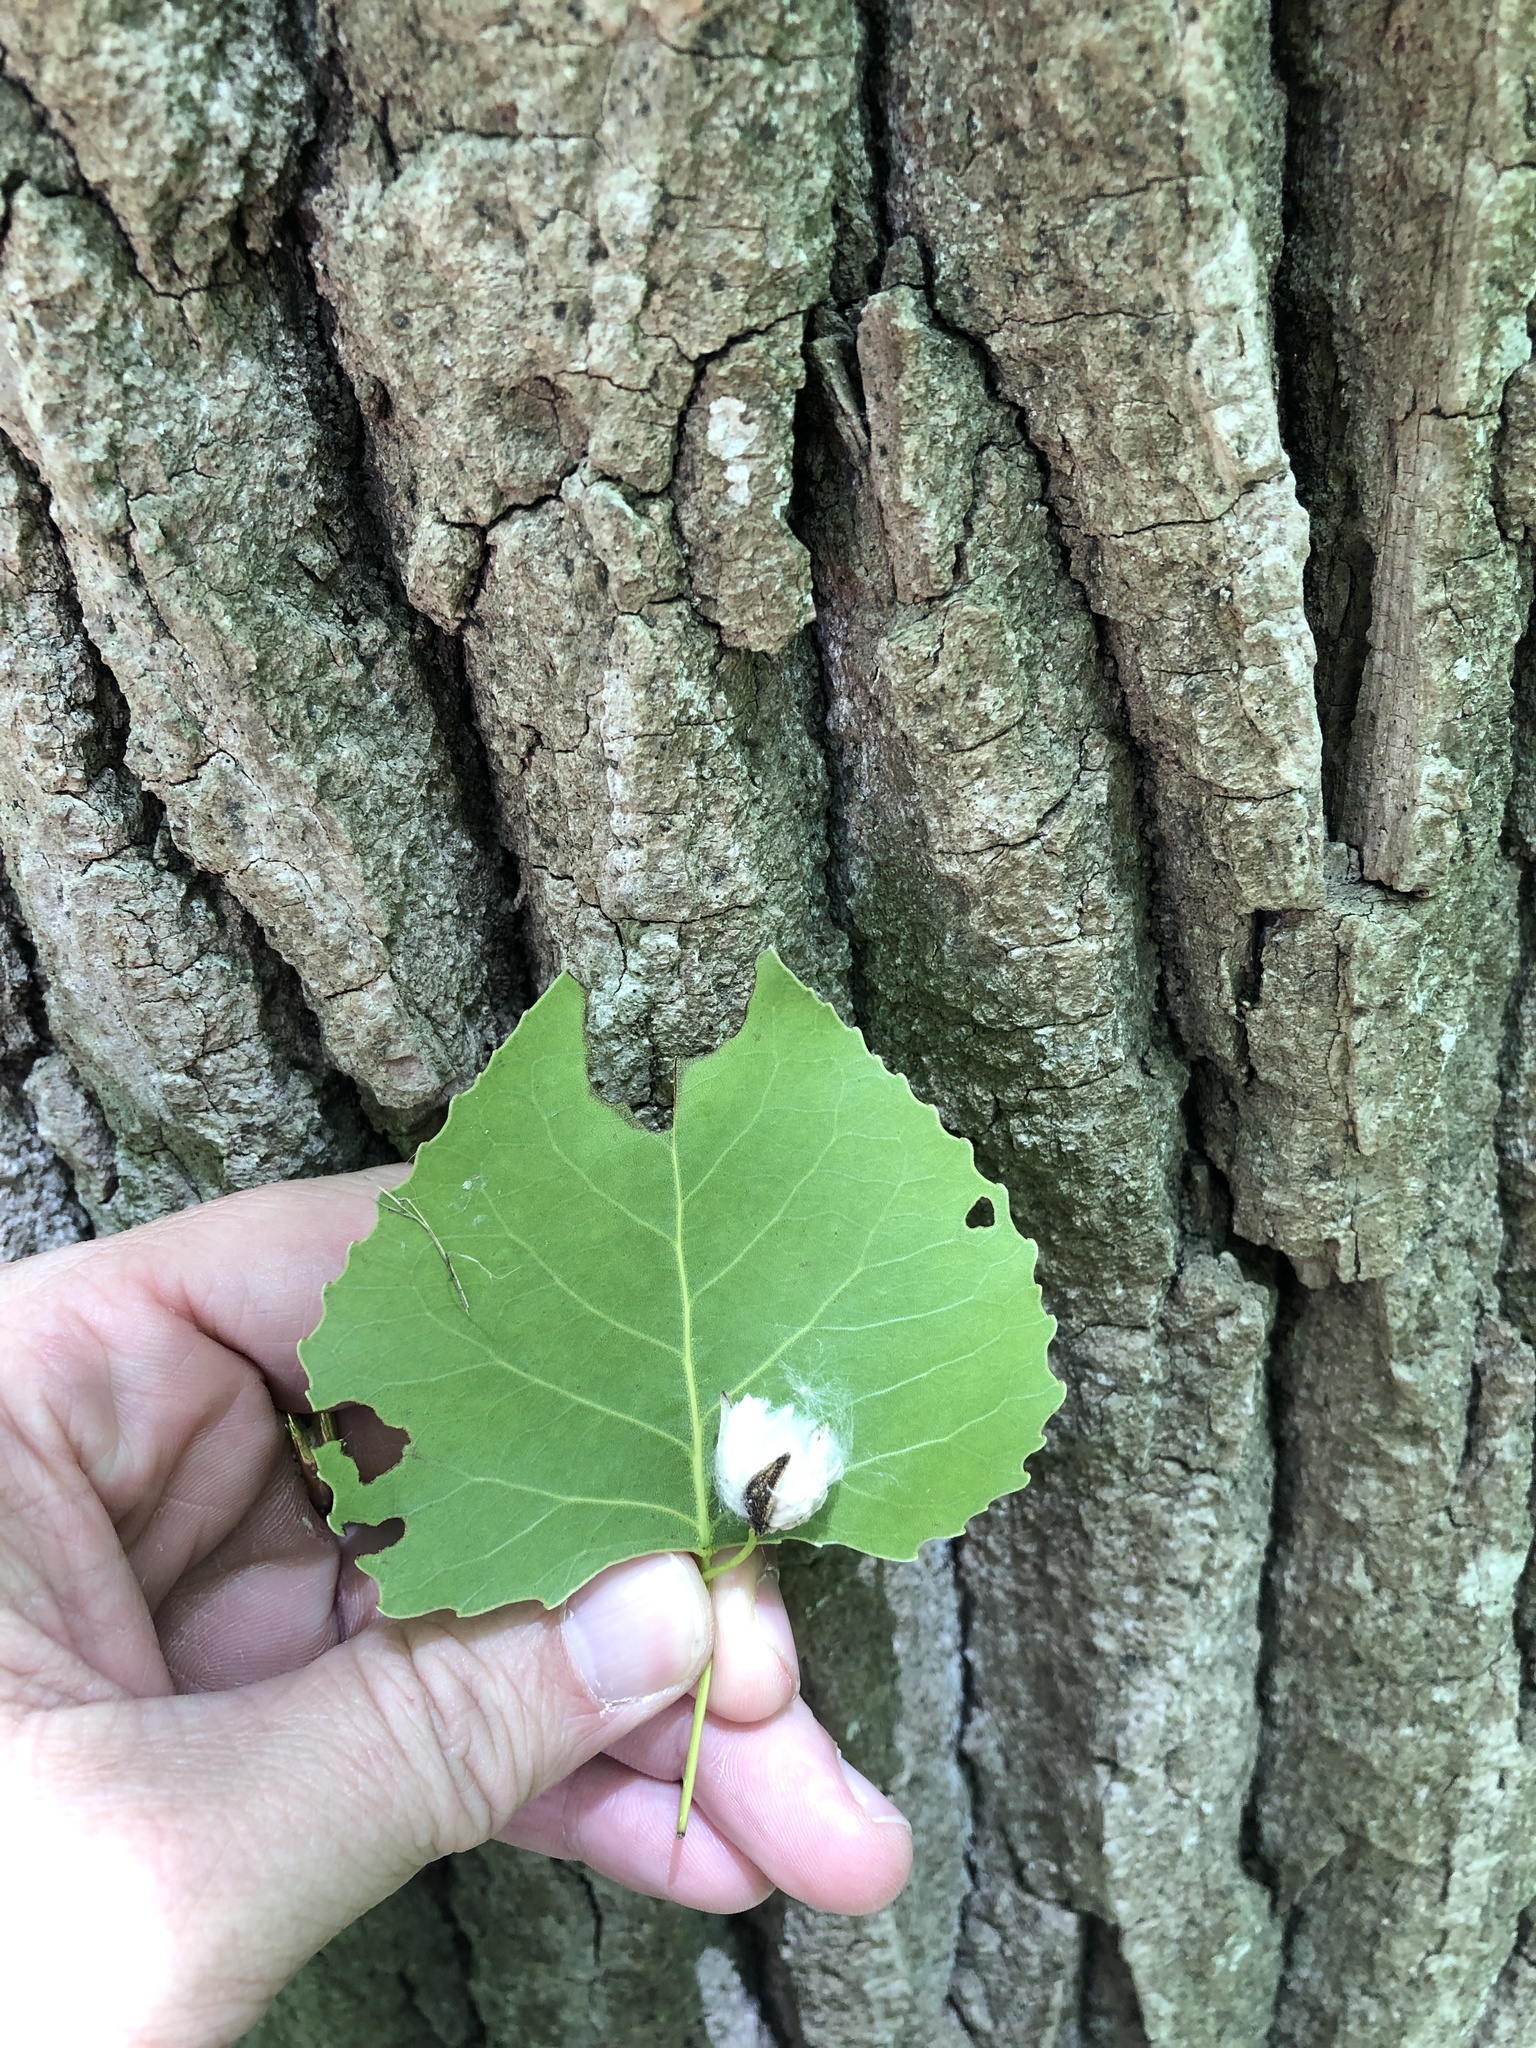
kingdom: Plantae
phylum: Tracheophyta
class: Magnoliopsida
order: Malpighiales
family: Salicaceae
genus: Populus
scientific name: Populus deltoides
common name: Eastern cottonwood
